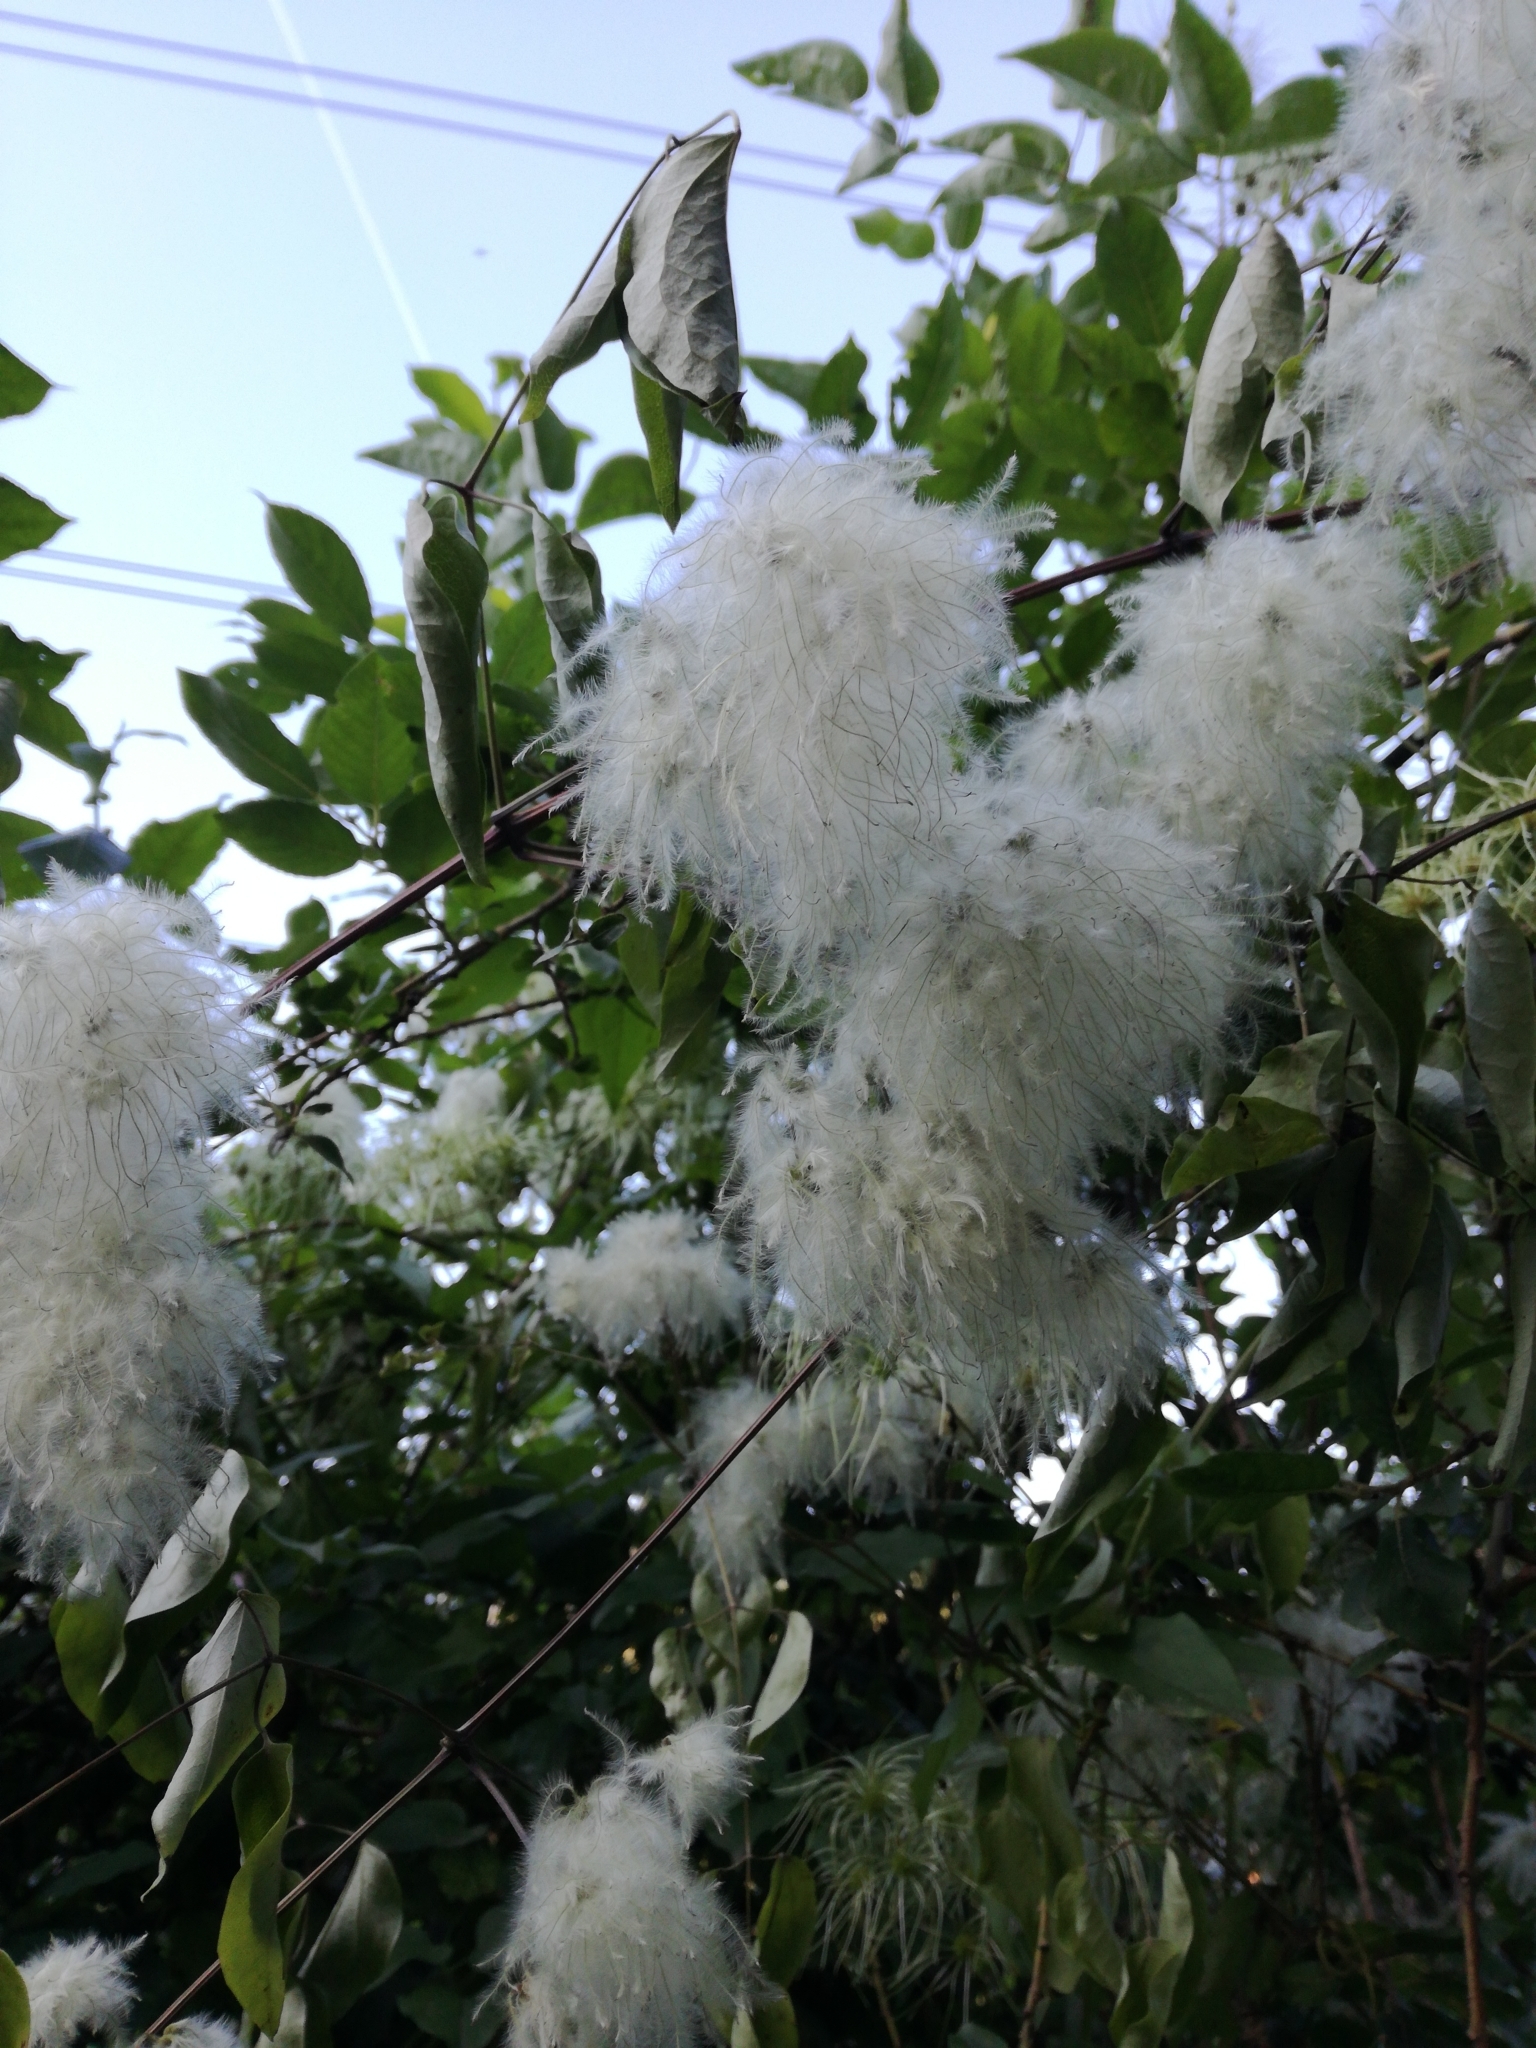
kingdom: Plantae
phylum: Tracheophyta
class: Magnoliopsida
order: Ranunculales
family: Ranunculaceae
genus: Clematis
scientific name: Clematis vitalba
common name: Evergreen clematis
